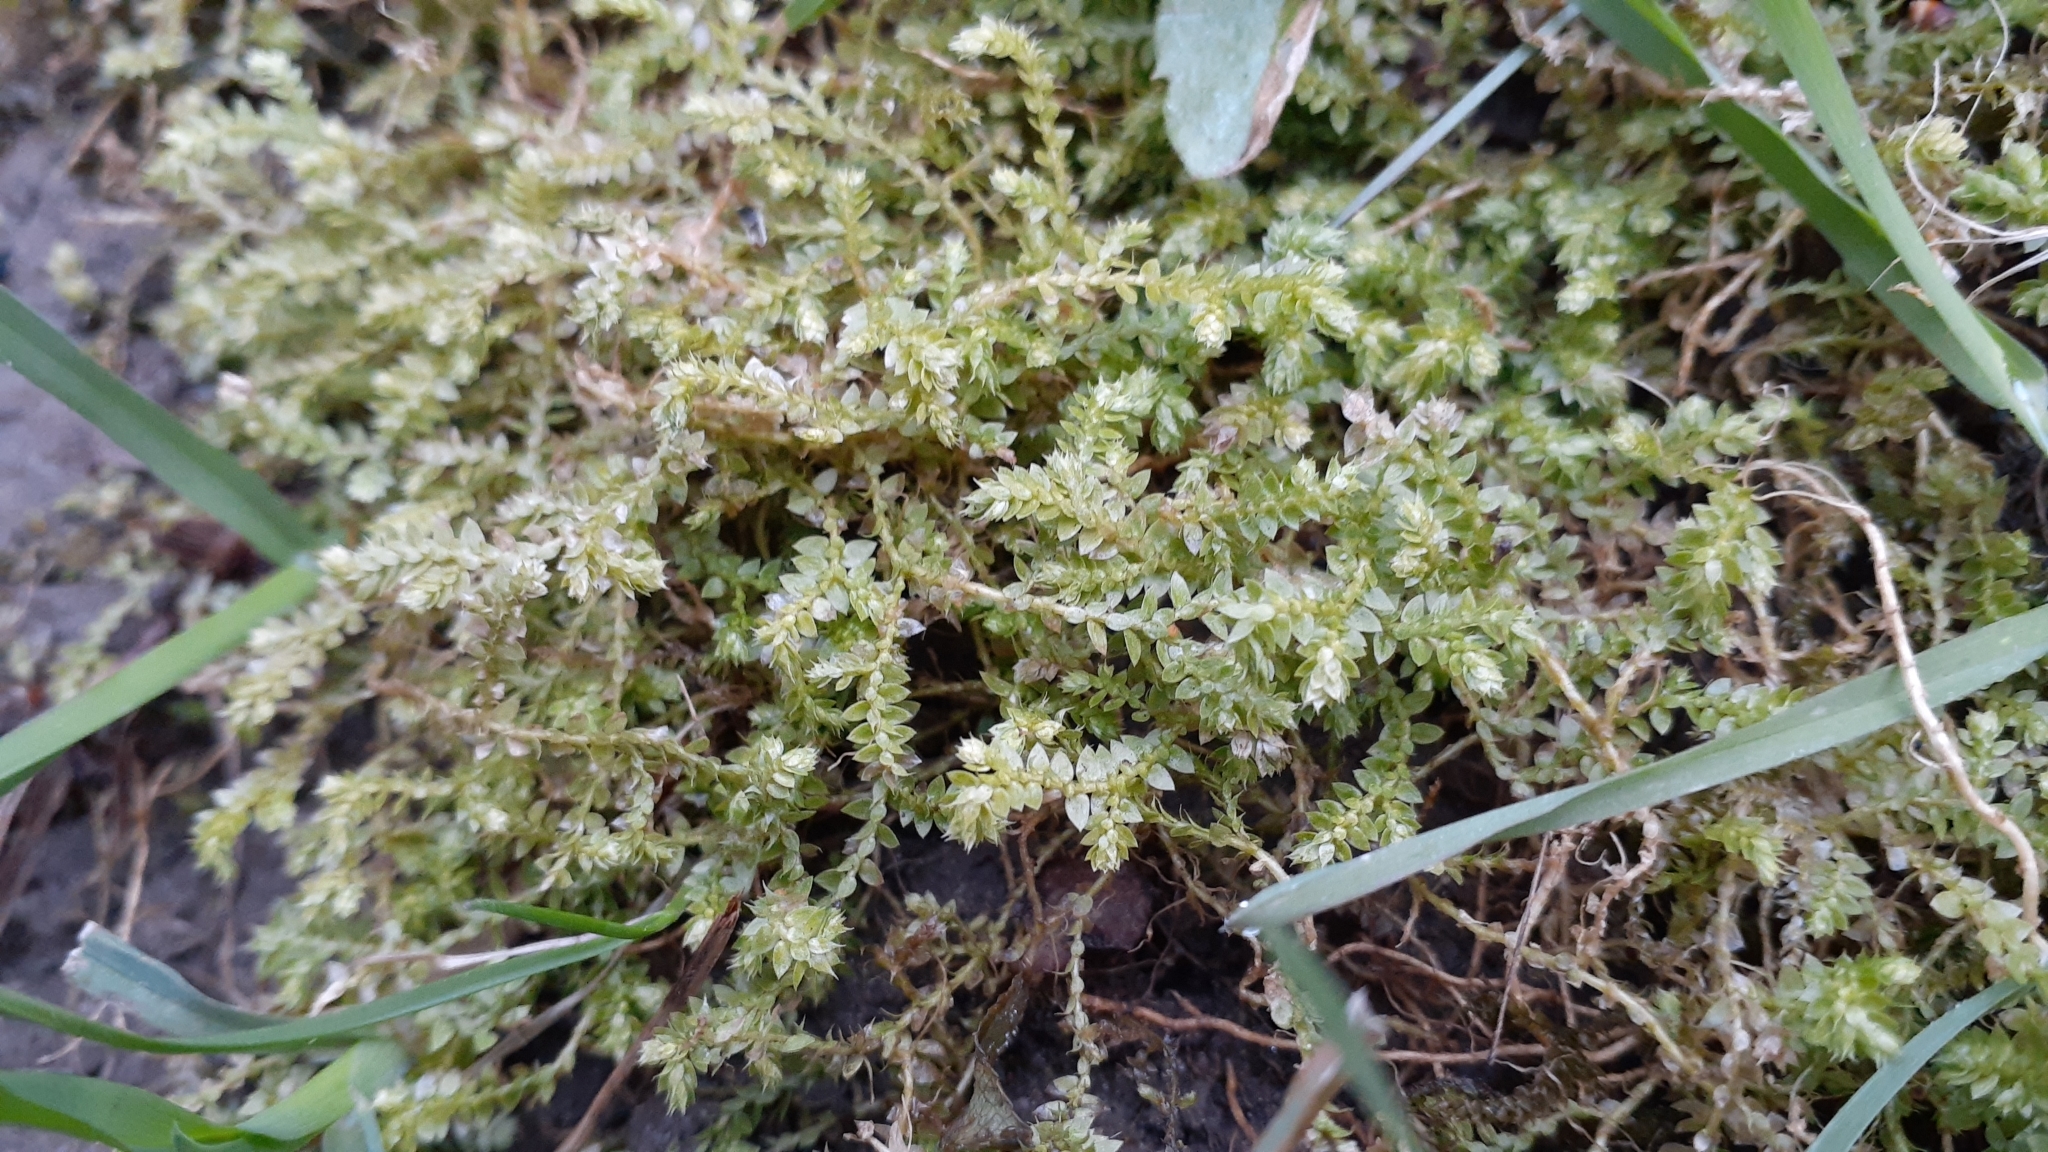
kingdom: Plantae
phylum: Tracheophyta
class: Lycopodiopsida
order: Selaginellales
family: Selaginellaceae
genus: Selaginella
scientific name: Selaginella eclipes
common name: Buck's meadow spikemoss
